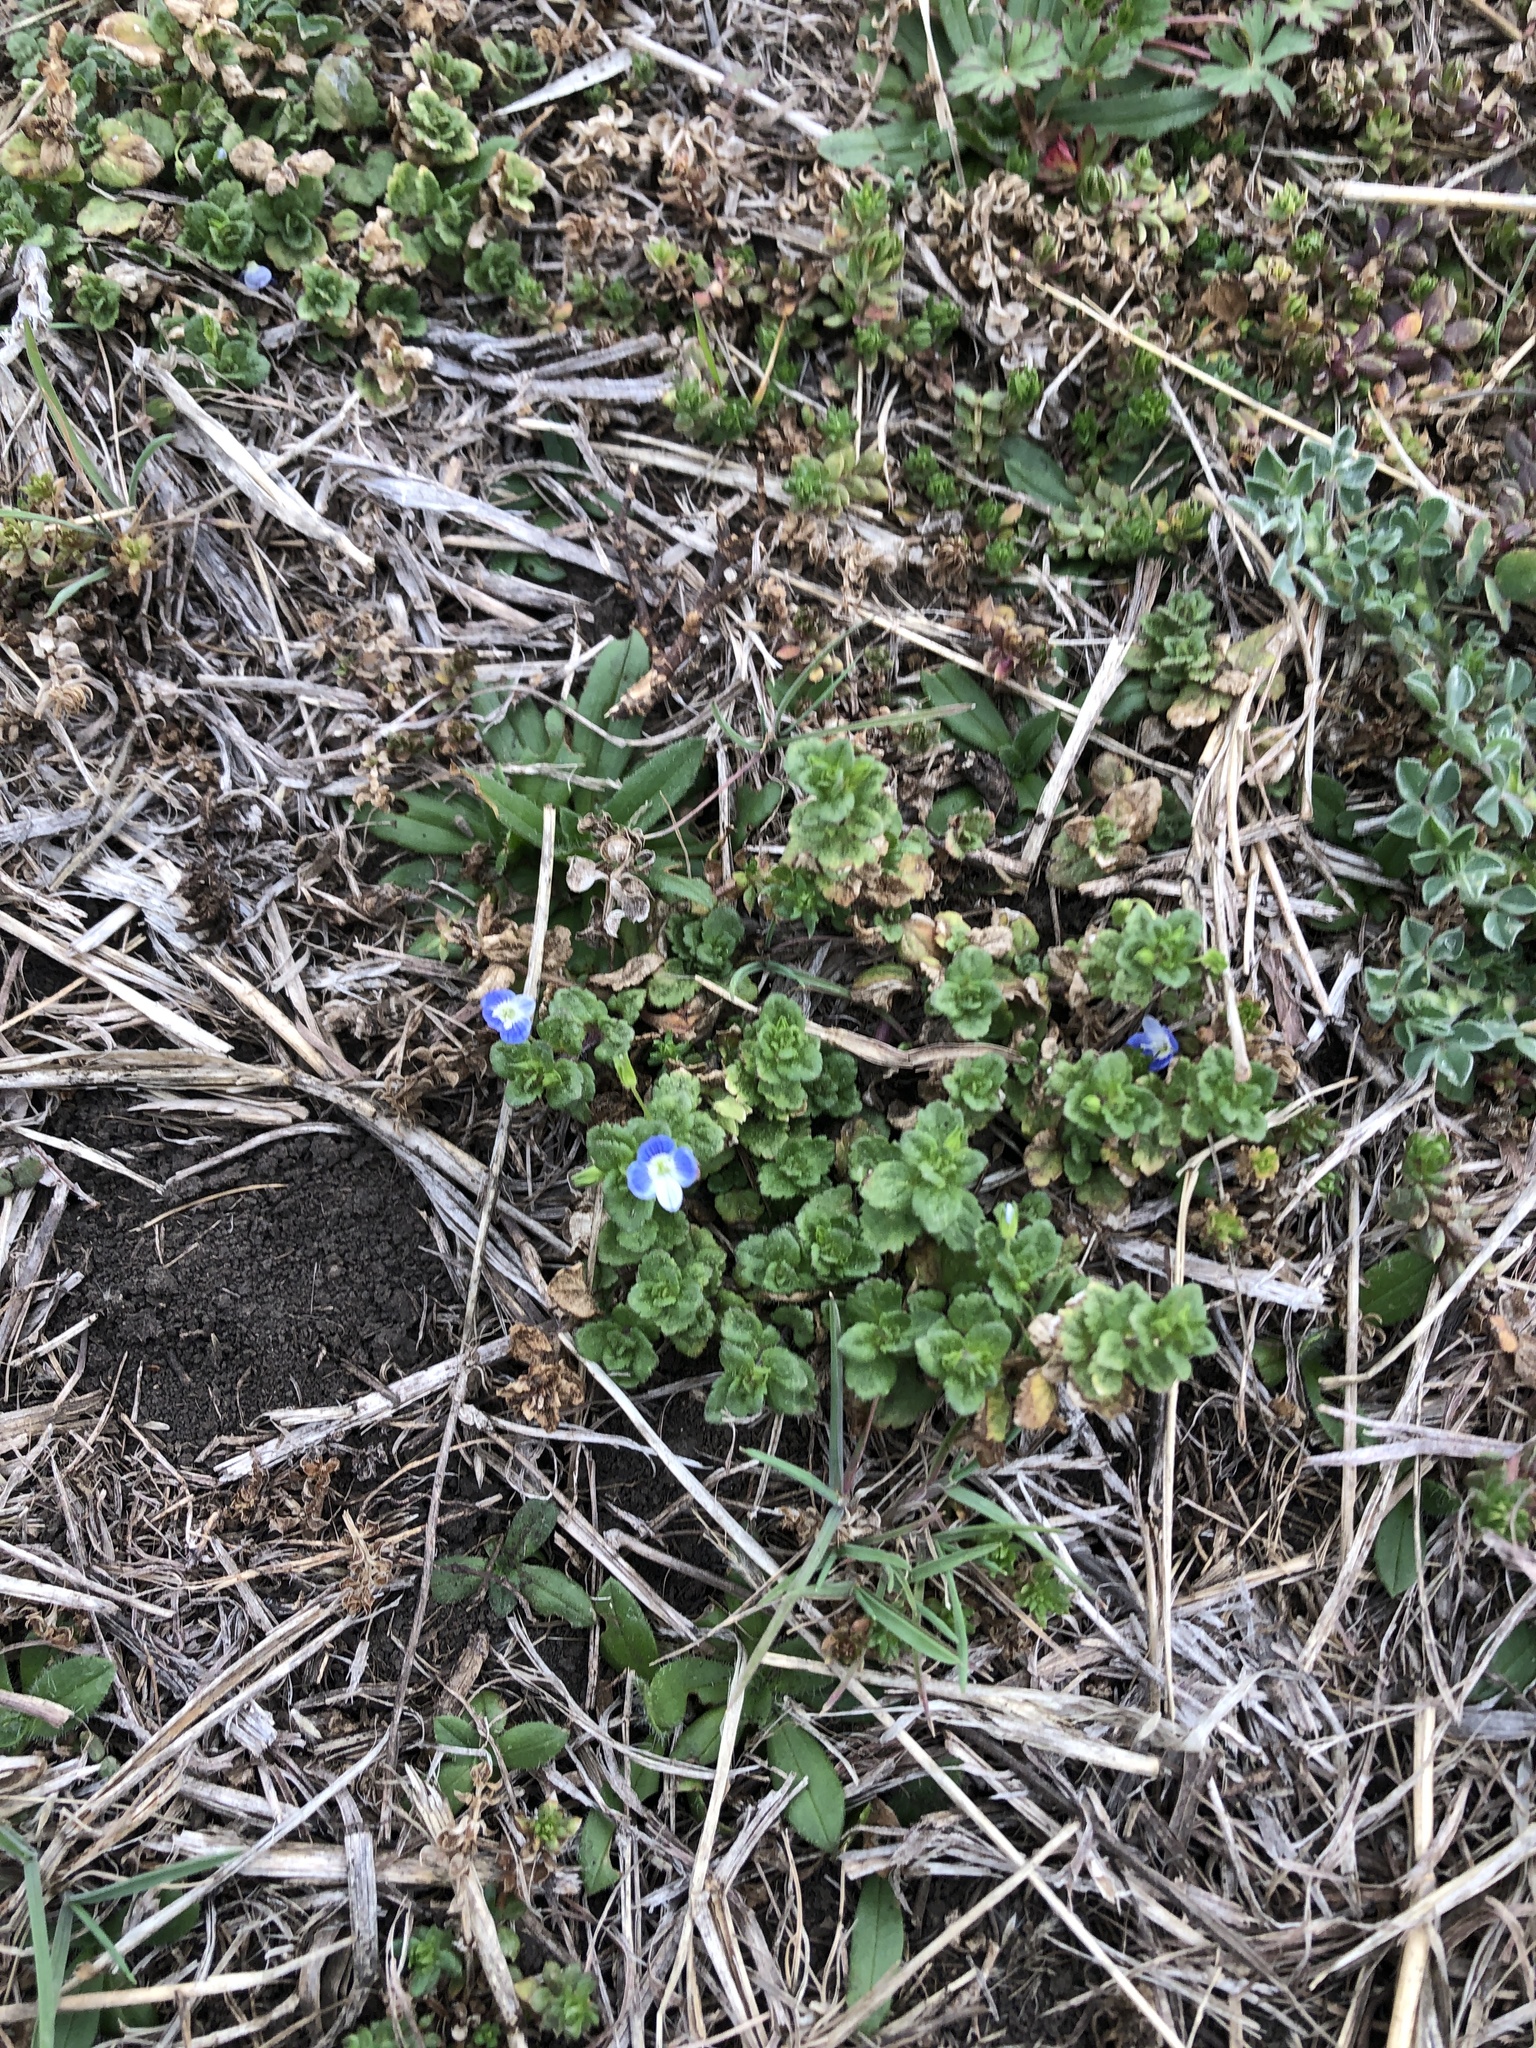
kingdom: Plantae
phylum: Tracheophyta
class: Magnoliopsida
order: Lamiales
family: Plantaginaceae
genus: Veronica
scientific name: Veronica persica
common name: Common field-speedwell
